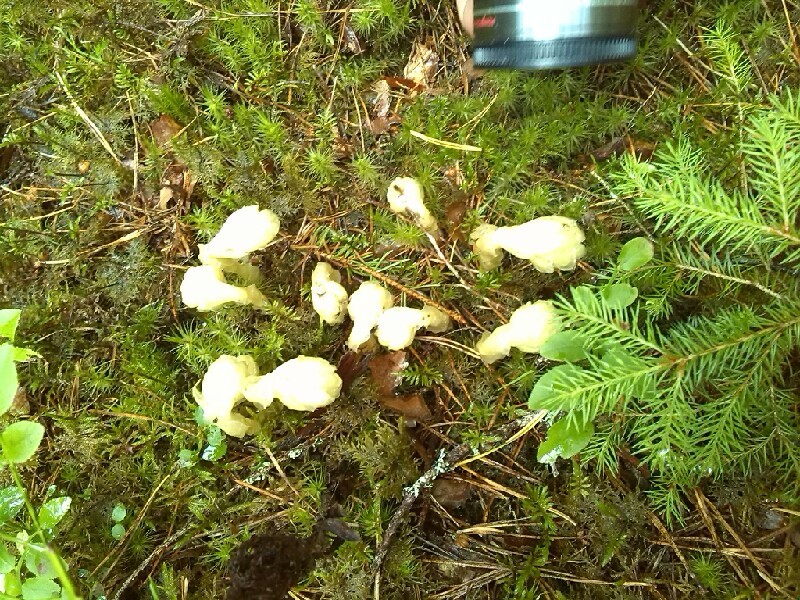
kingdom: Plantae
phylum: Tracheophyta
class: Magnoliopsida
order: Ericales
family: Ericaceae
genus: Hypopitys
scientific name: Hypopitys monotropa
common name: Yellow bird's-nest
